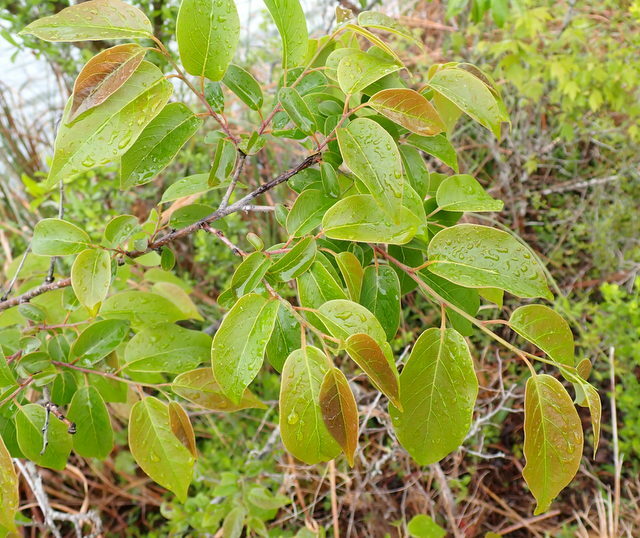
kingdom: Plantae
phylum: Tracheophyta
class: Magnoliopsida
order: Ericales
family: Ebenaceae
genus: Diospyros
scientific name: Diospyros virginiana
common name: Persimmon
